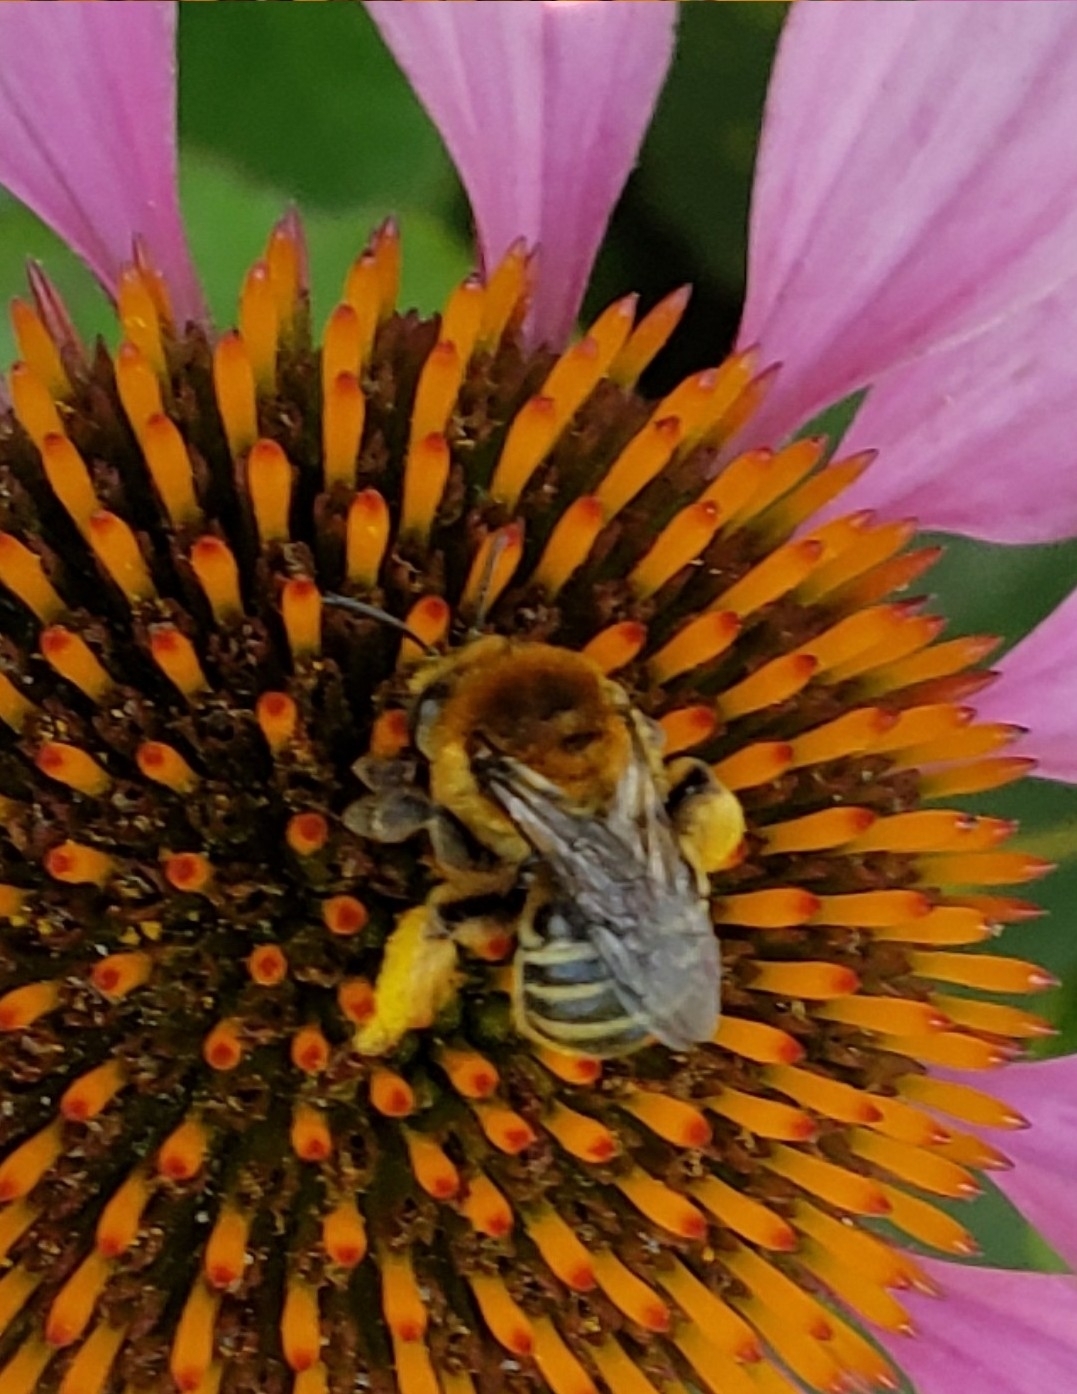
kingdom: Animalia
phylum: Arthropoda
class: Insecta
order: Hymenoptera
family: Apidae
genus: Melissodes
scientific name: Melissodes trinodis
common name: Dark-veined longhorn
